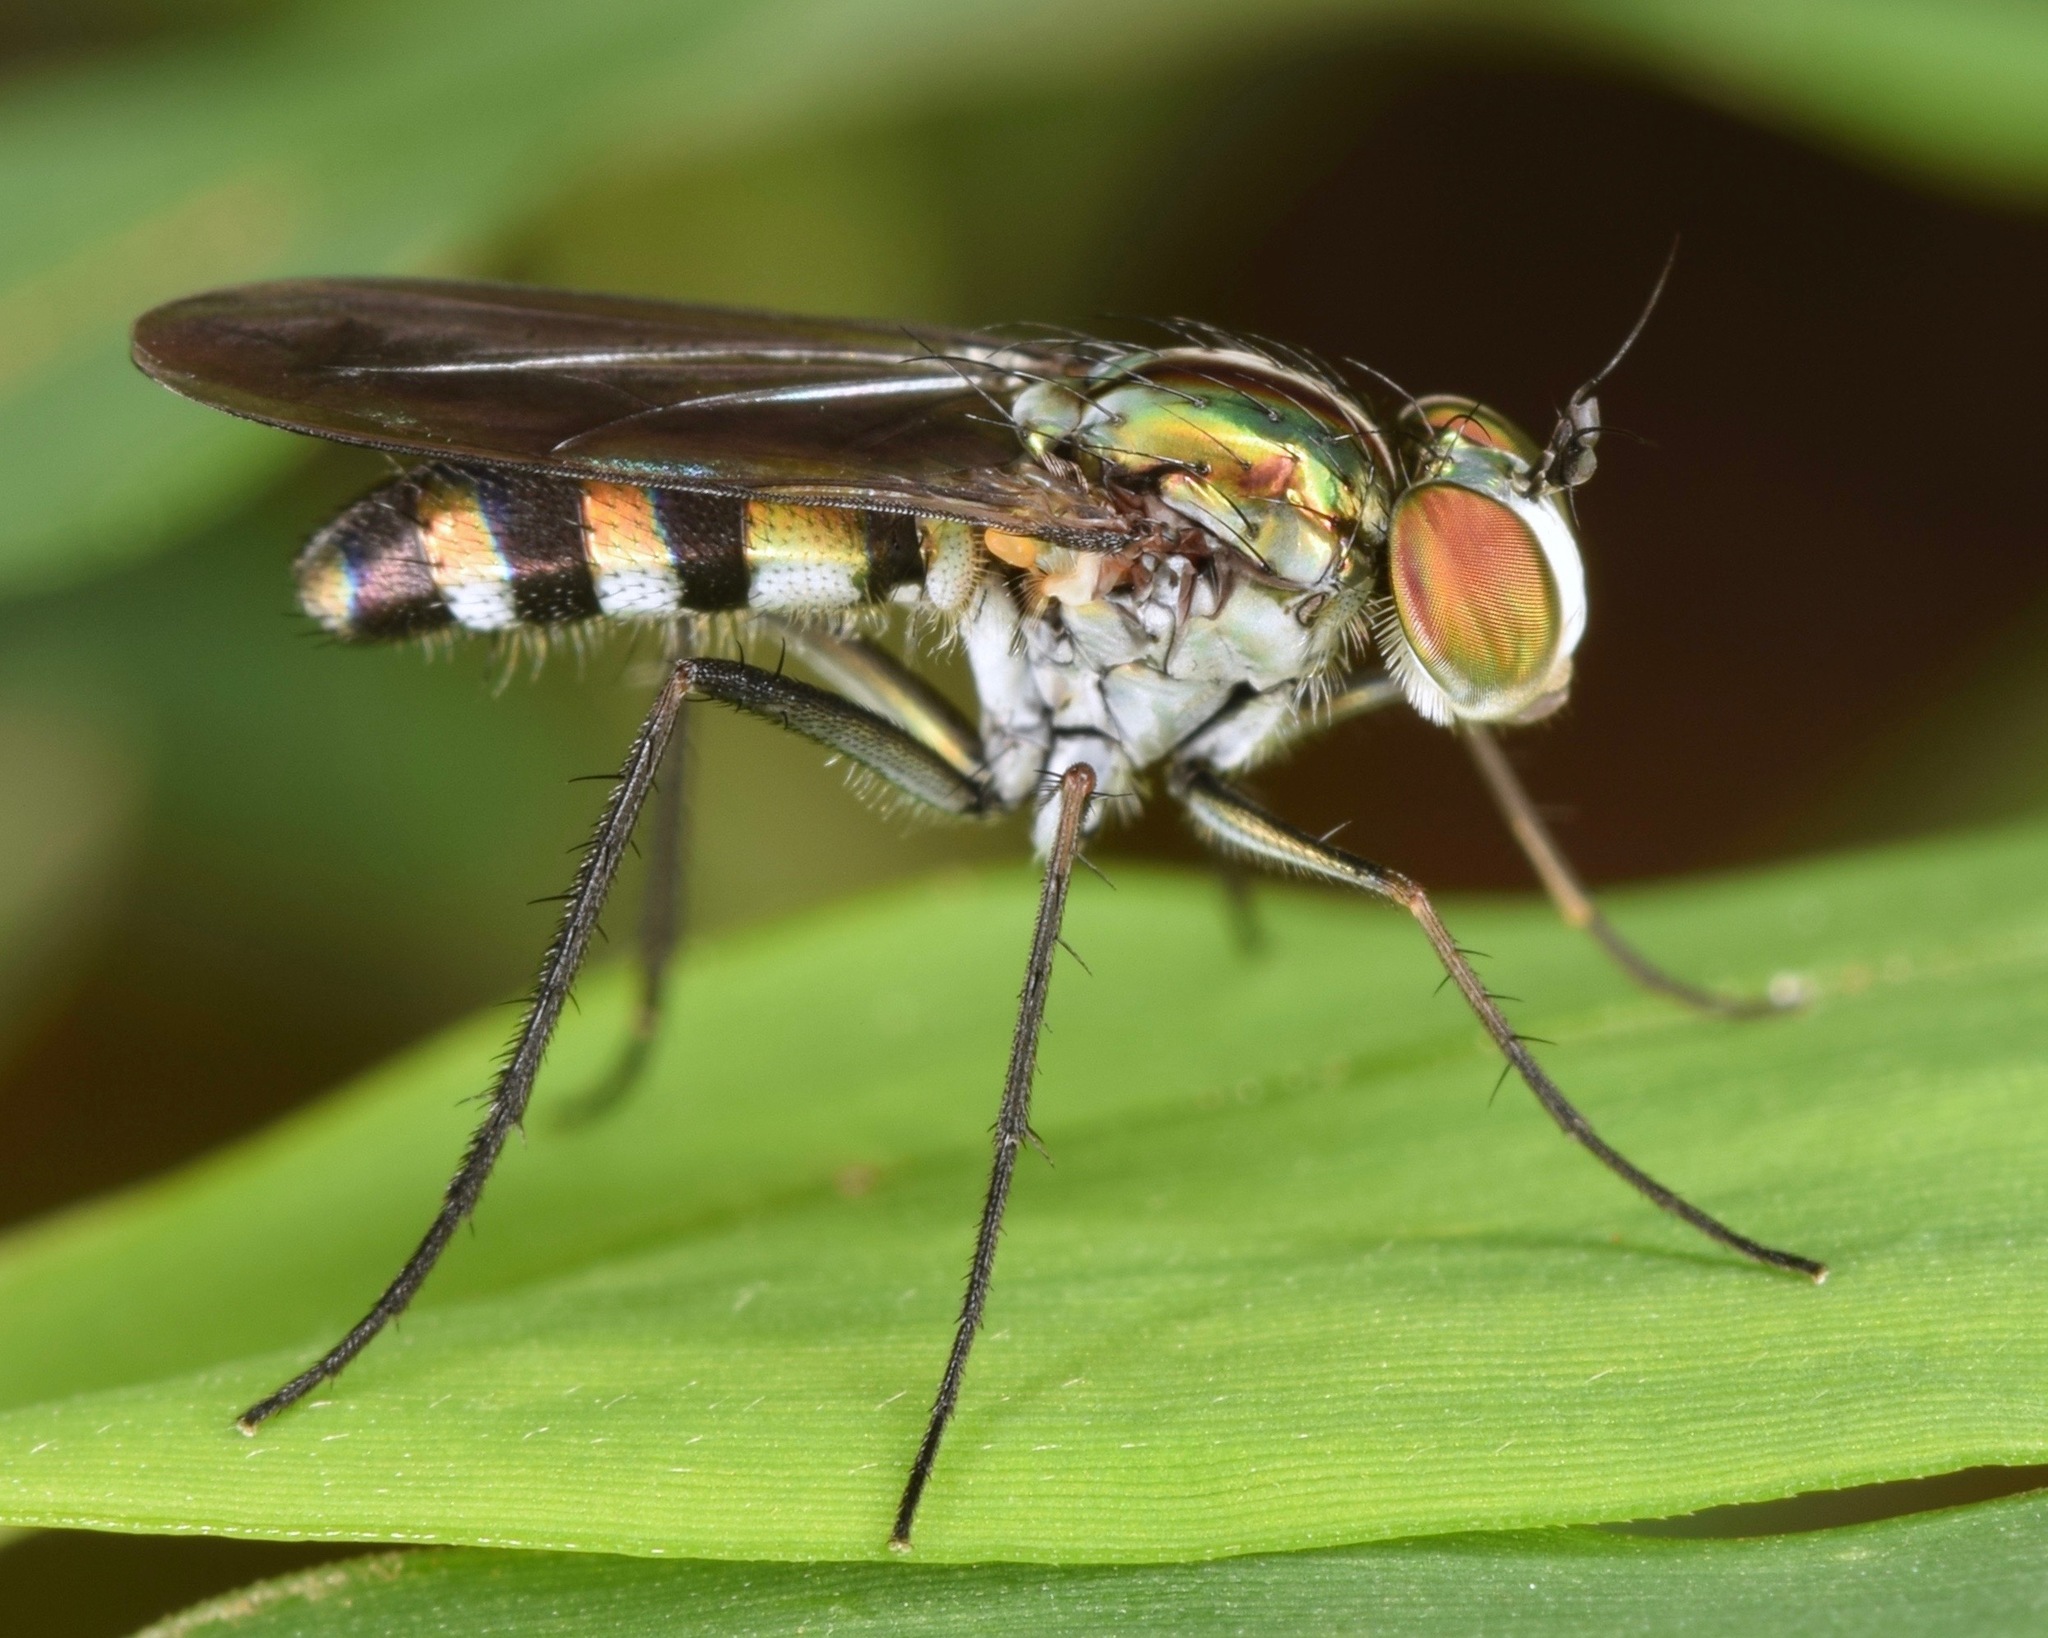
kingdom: Animalia
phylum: Arthropoda
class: Insecta
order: Diptera
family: Dolichopodidae
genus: Plagioneurus
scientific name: Plagioneurus univittatus
